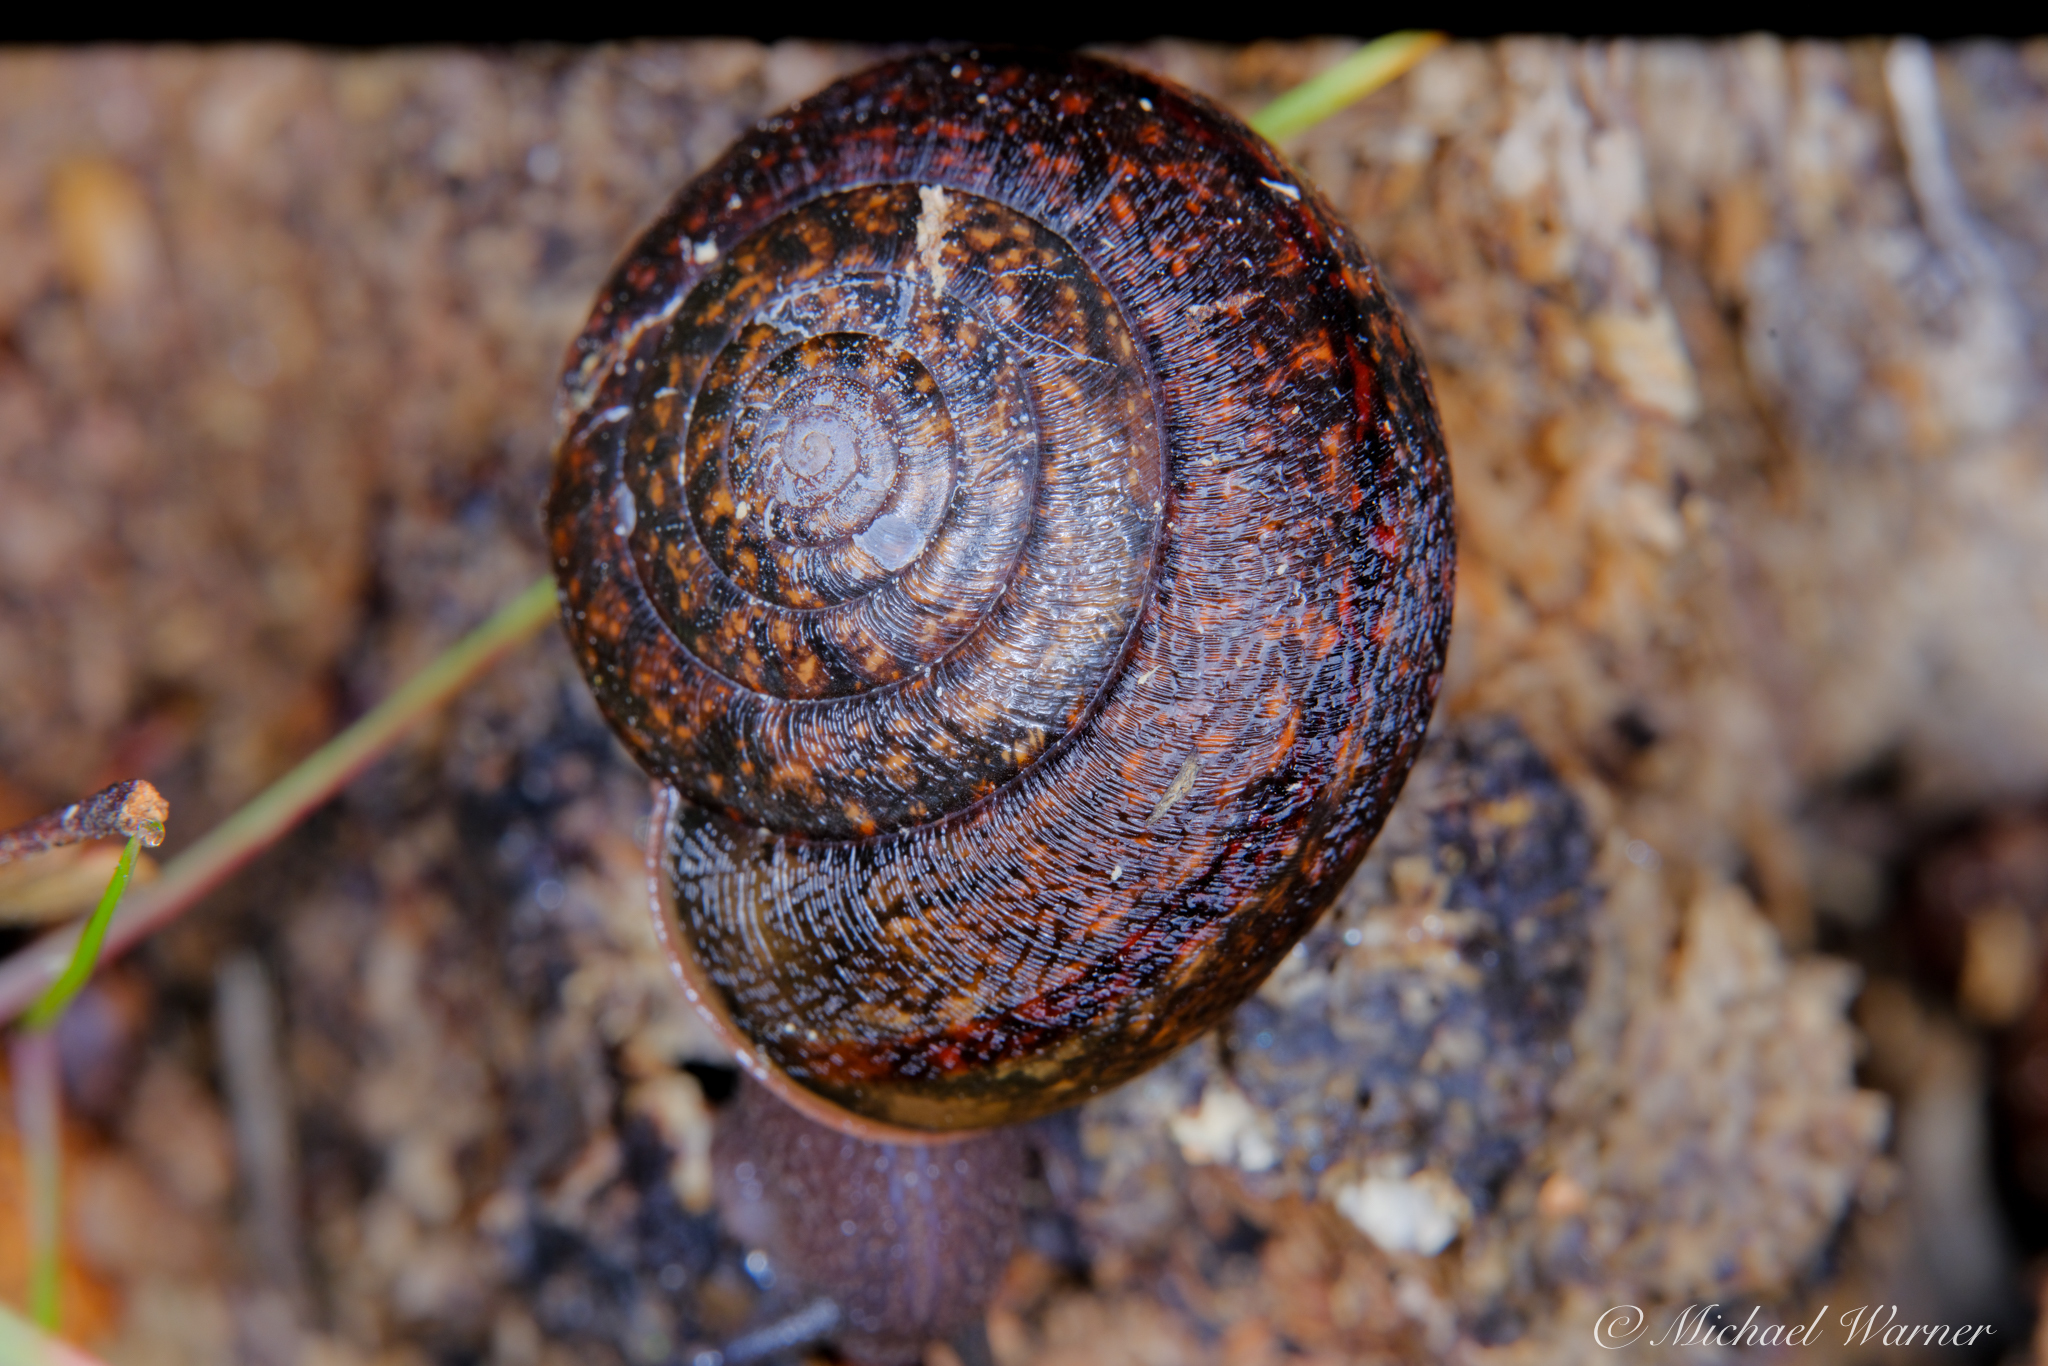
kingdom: Animalia
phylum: Mollusca
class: Gastropoda
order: Stylommatophora
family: Xanthonychidae
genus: Helminthoglypta
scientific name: Helminthoglypta diabloensis
